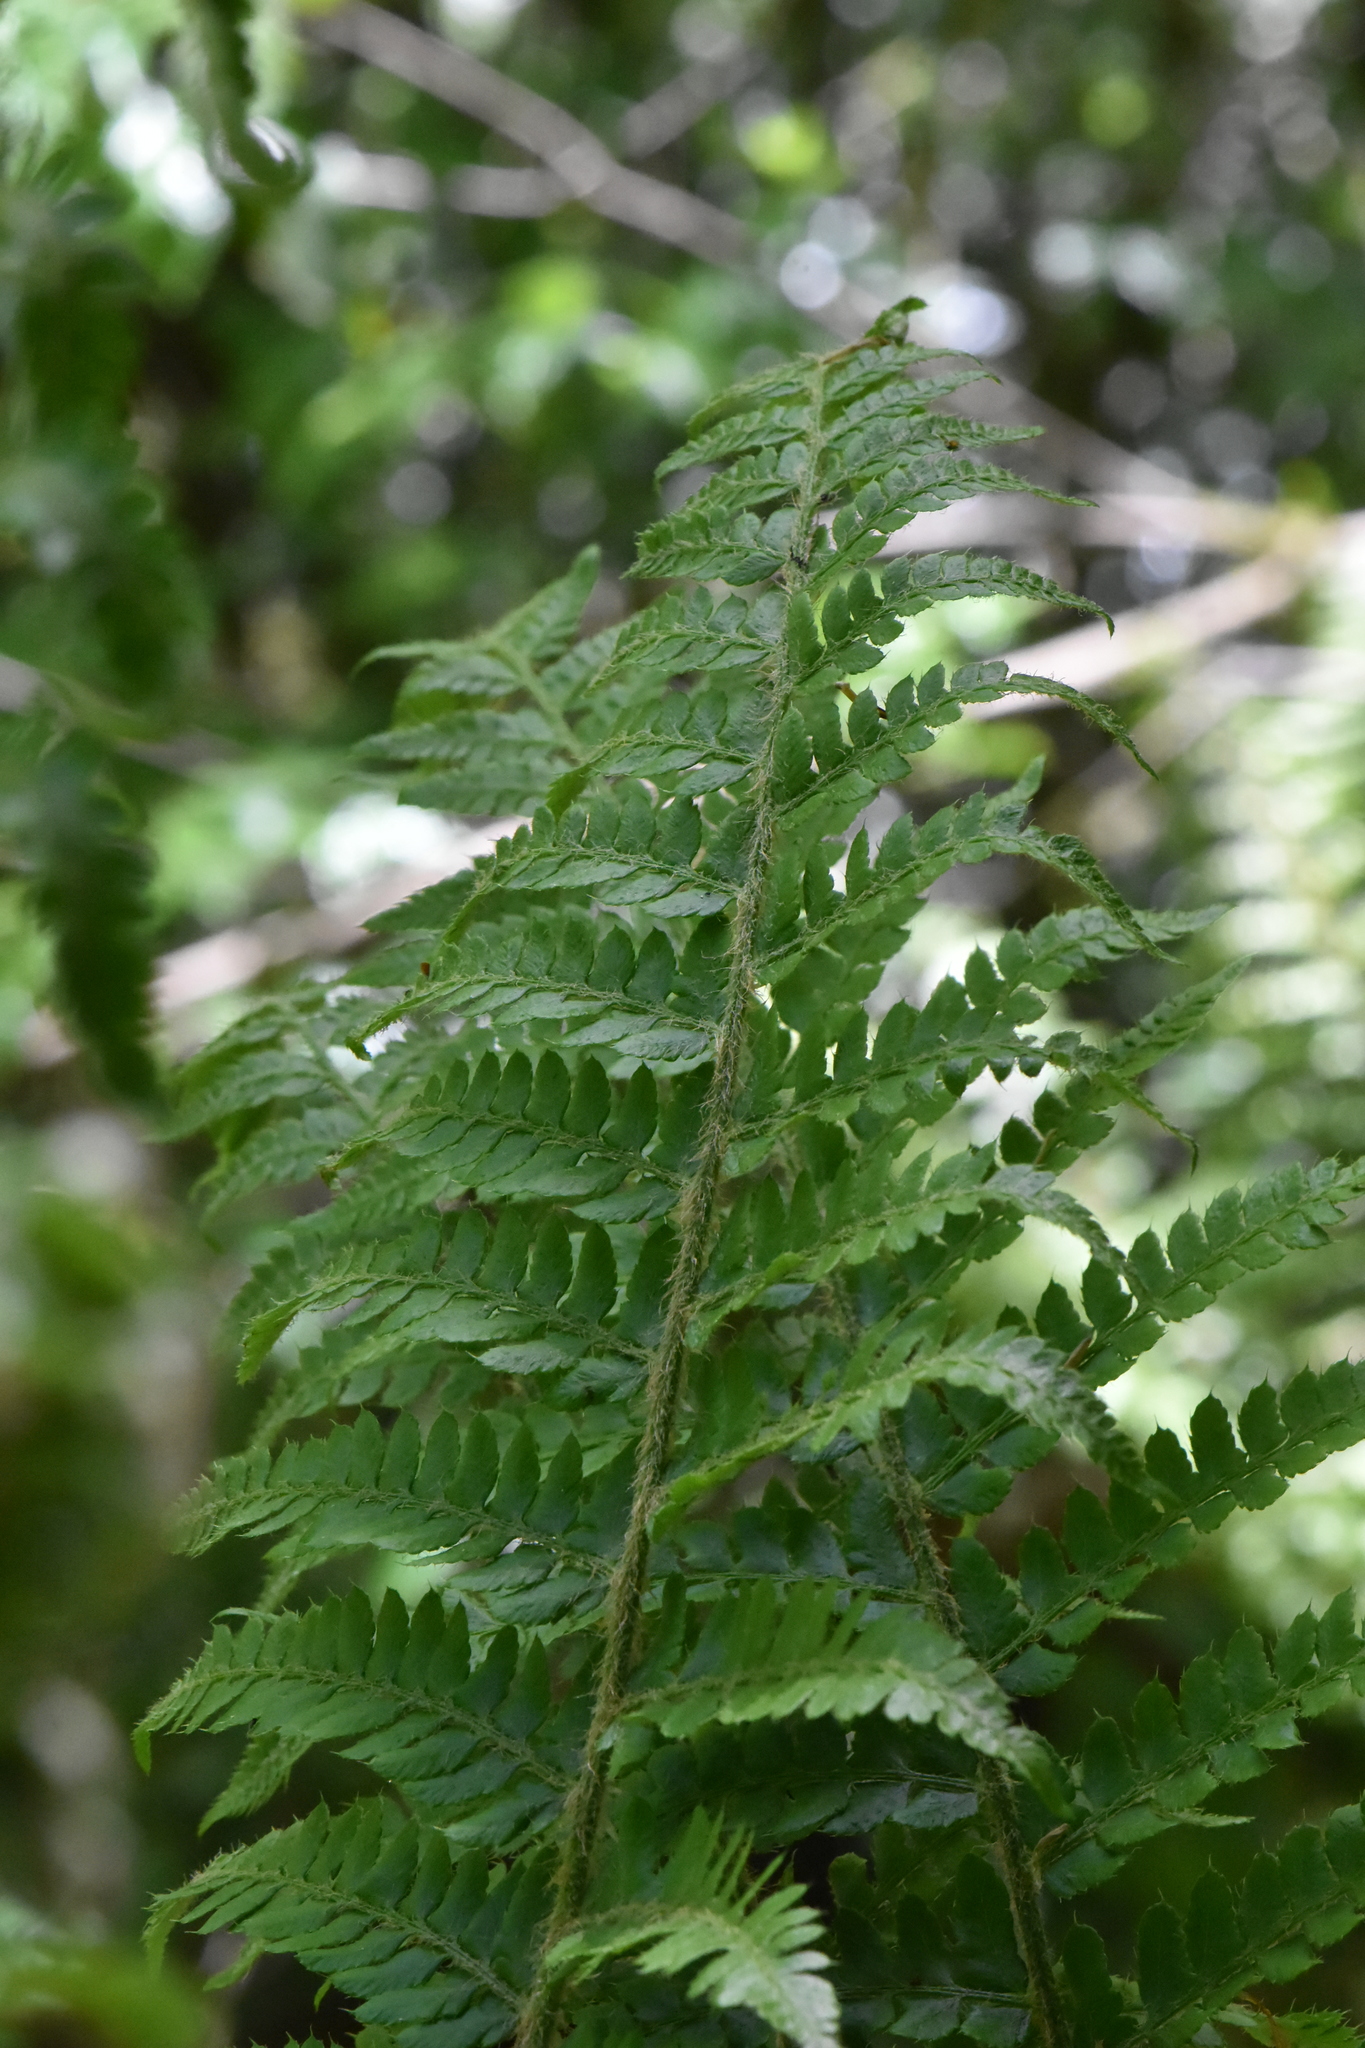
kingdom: Plantae
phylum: Tracheophyta
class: Polypodiopsida
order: Polypodiales
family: Dryopteridaceae
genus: Polystichum
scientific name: Polystichum setiferum
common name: Soft shield-fern
